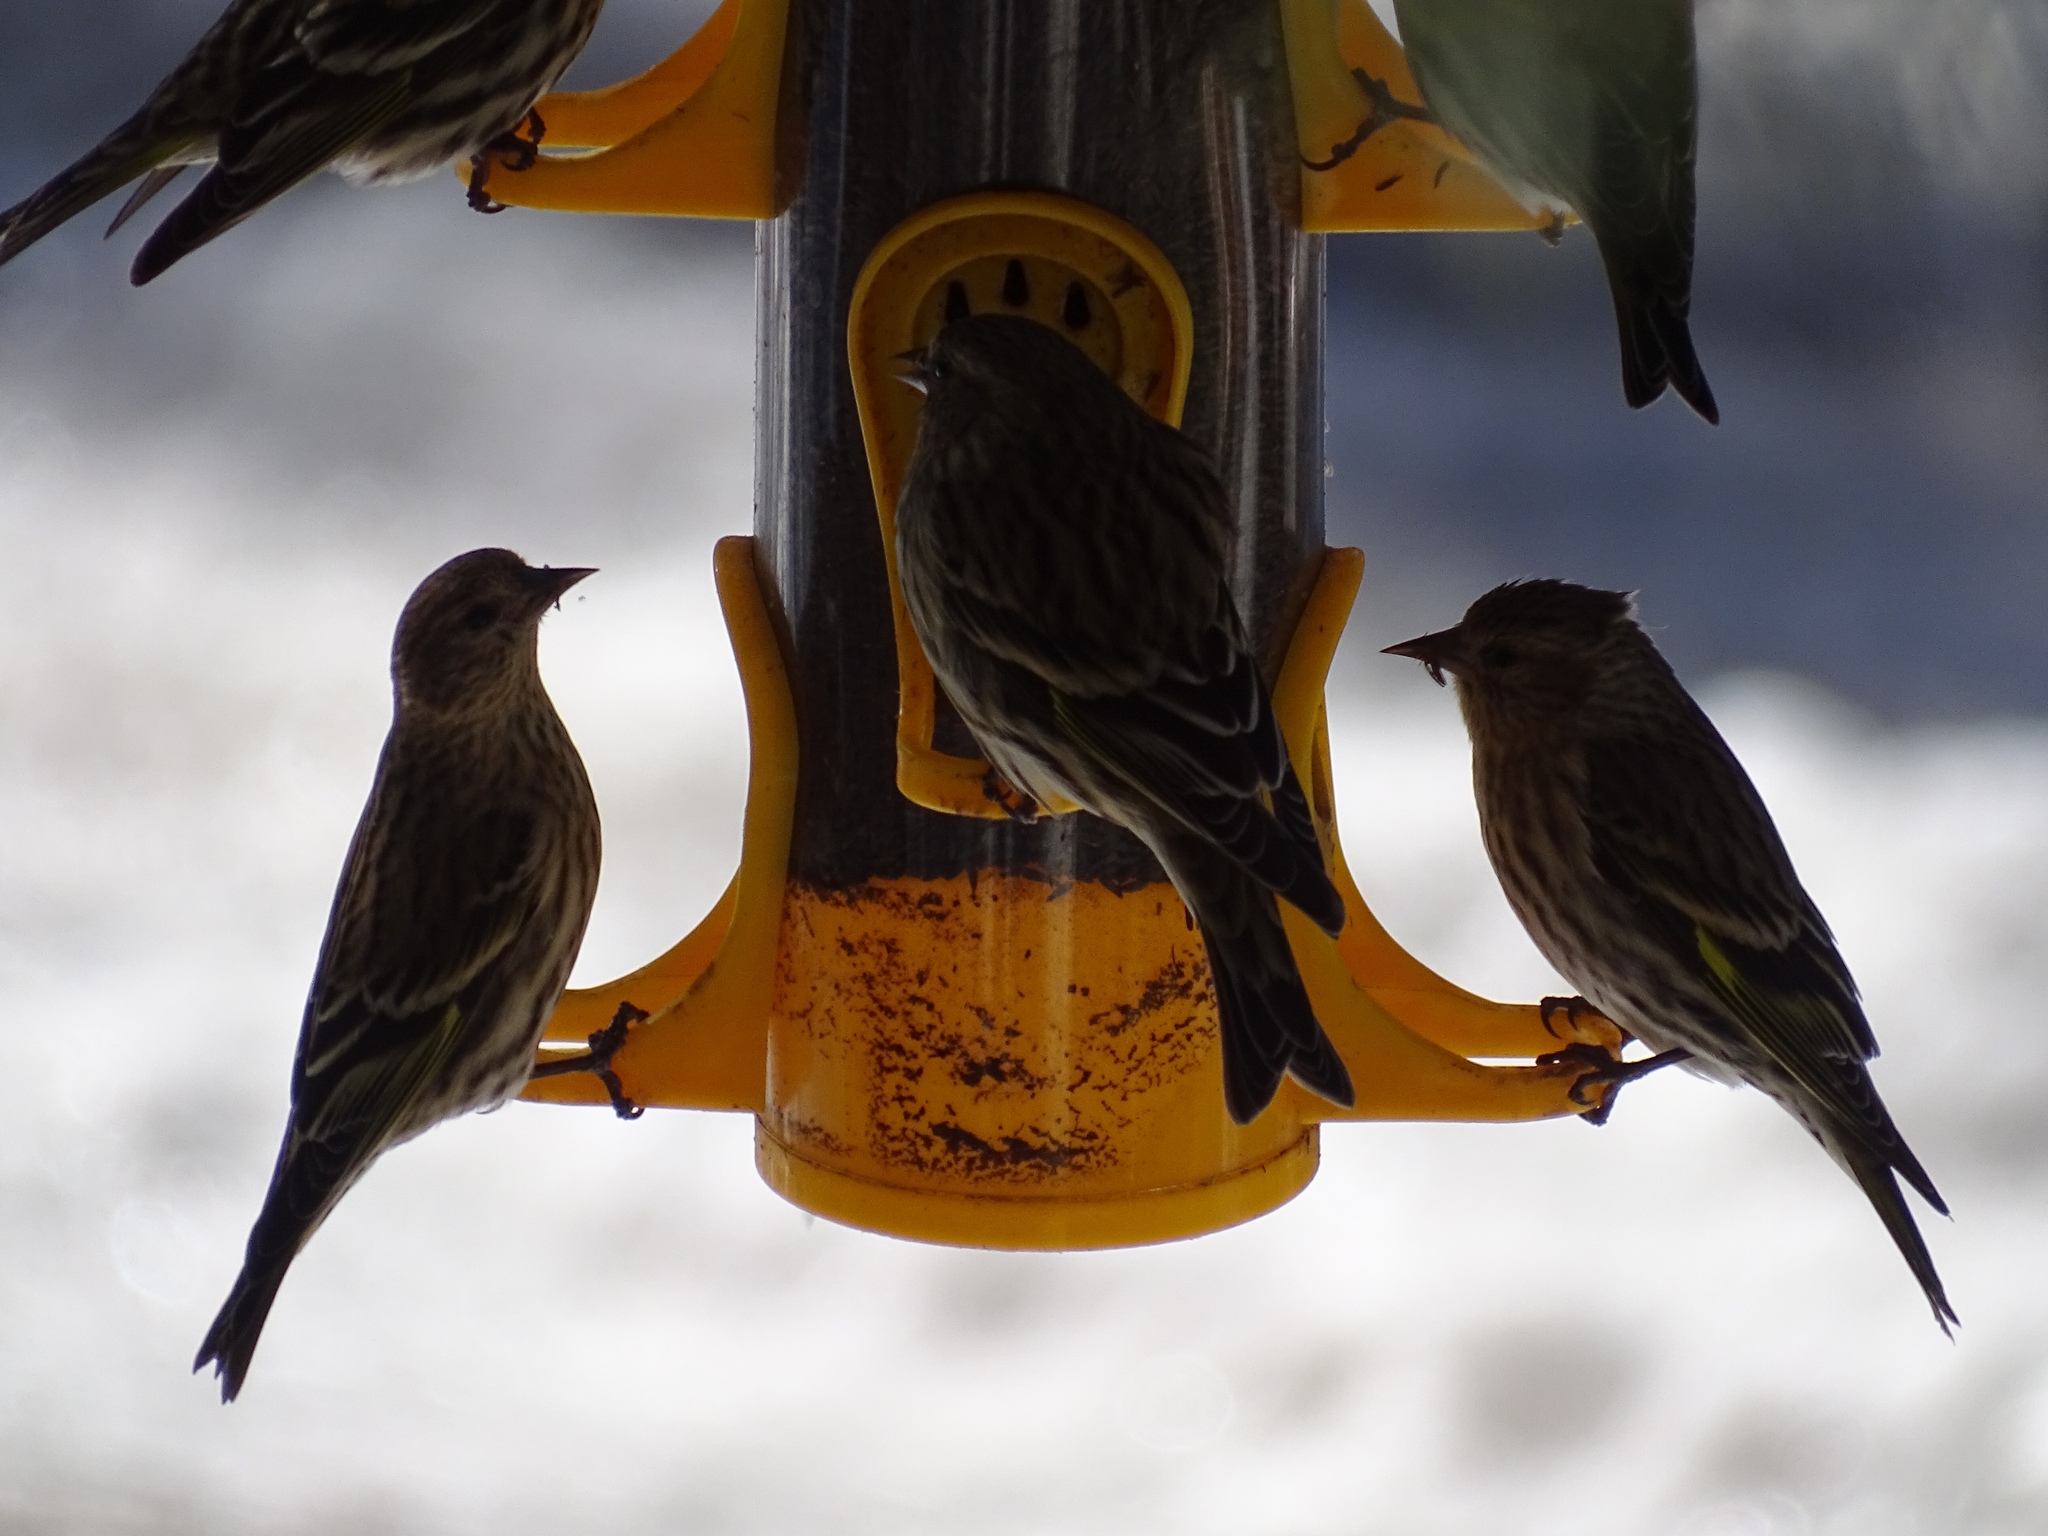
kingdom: Animalia
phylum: Chordata
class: Aves
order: Passeriformes
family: Fringillidae
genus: Spinus
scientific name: Spinus pinus
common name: Pine siskin
